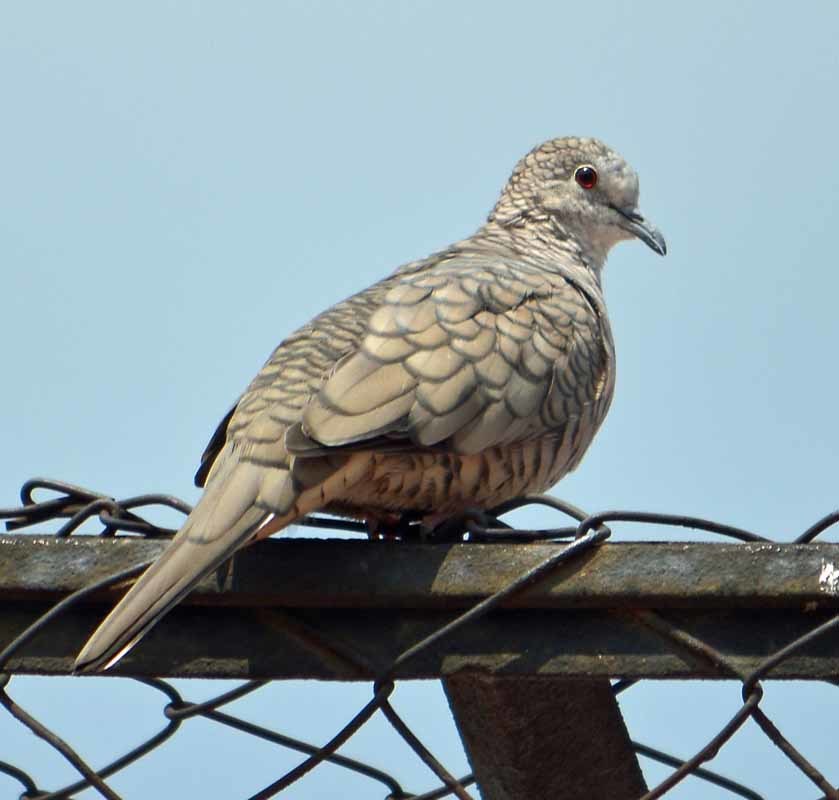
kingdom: Animalia
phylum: Chordata
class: Aves
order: Columbiformes
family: Columbidae
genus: Columbina
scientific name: Columbina inca
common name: Inca dove
